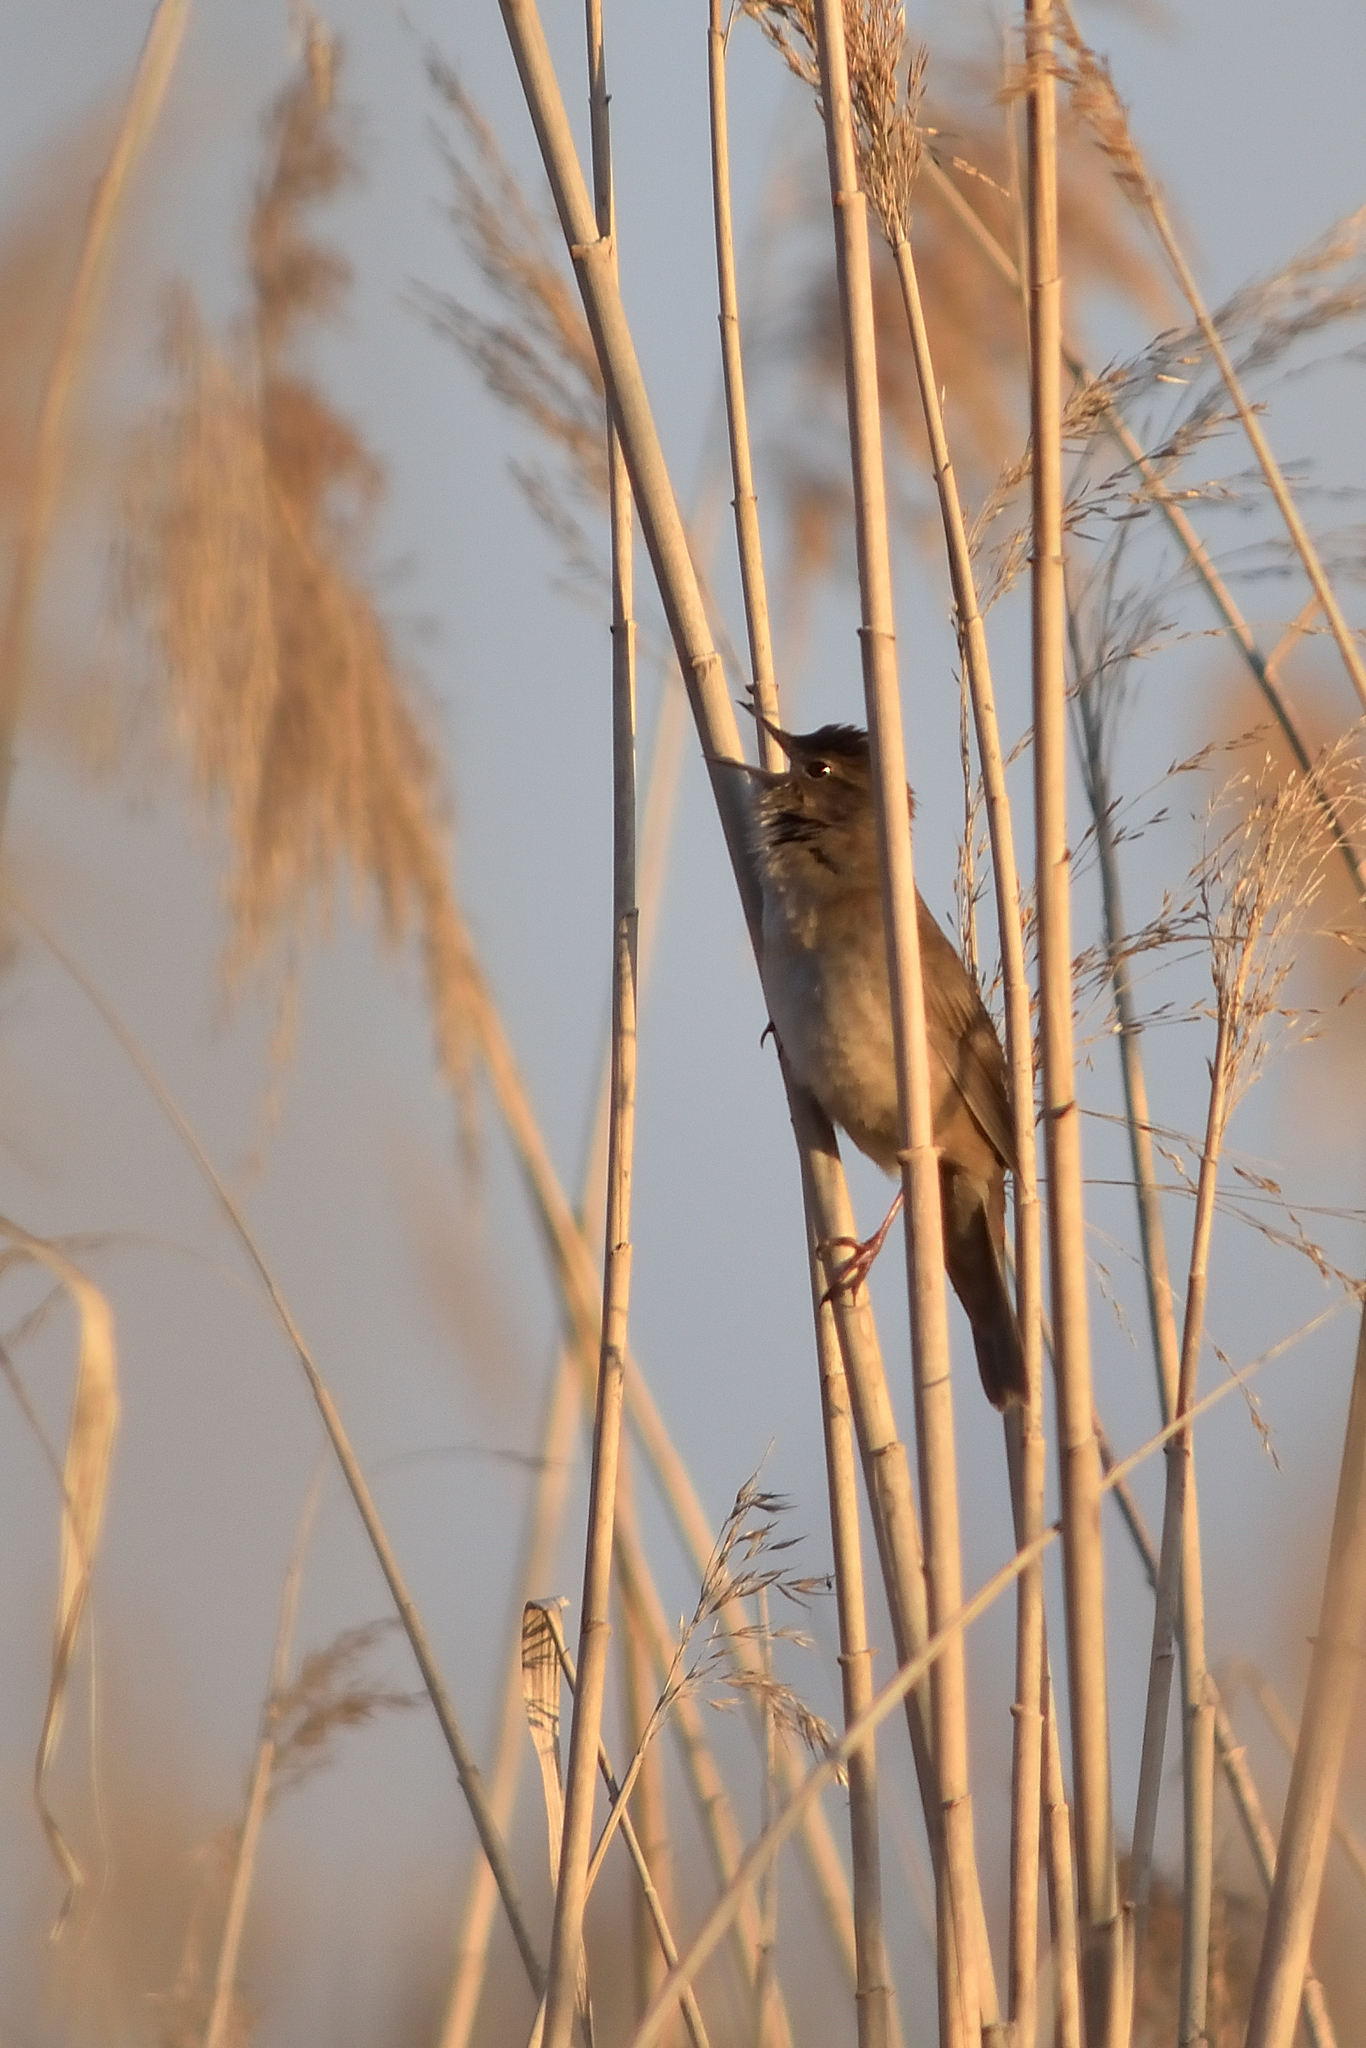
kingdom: Animalia
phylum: Chordata
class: Aves
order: Passeriformes
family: Locustellidae
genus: Locustella
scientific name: Locustella luscinioides
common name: Savi's warbler
